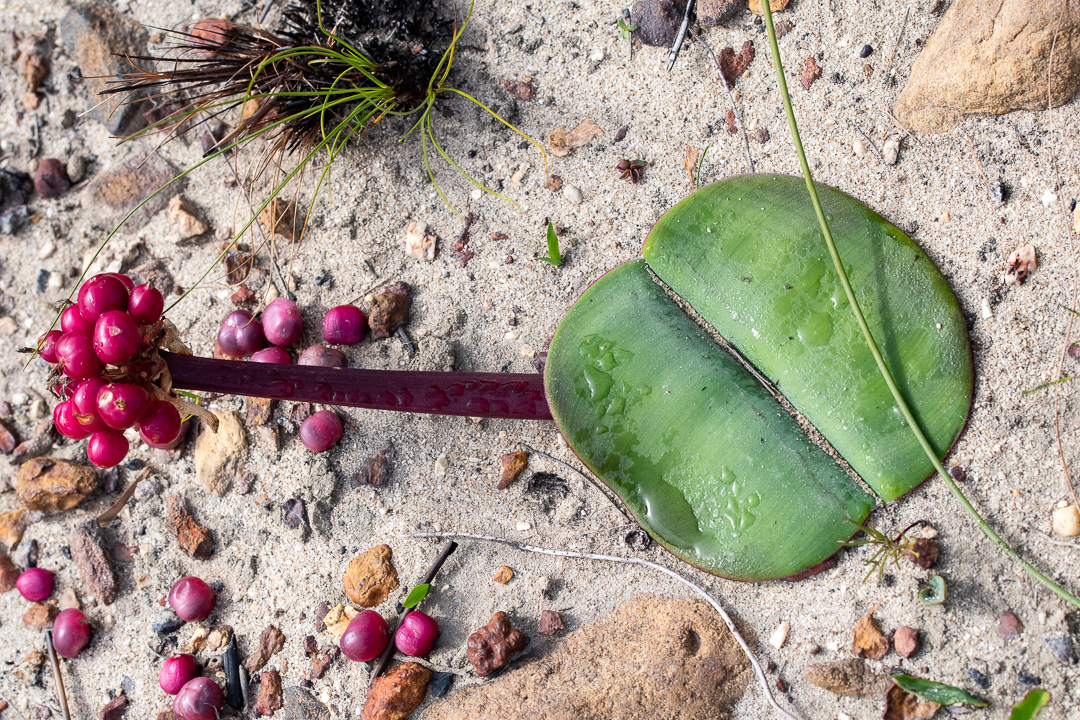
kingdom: Plantae
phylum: Tracheophyta
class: Liliopsida
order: Asparagales
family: Amaryllidaceae
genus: Haemanthus
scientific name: Haemanthus sanguineus
